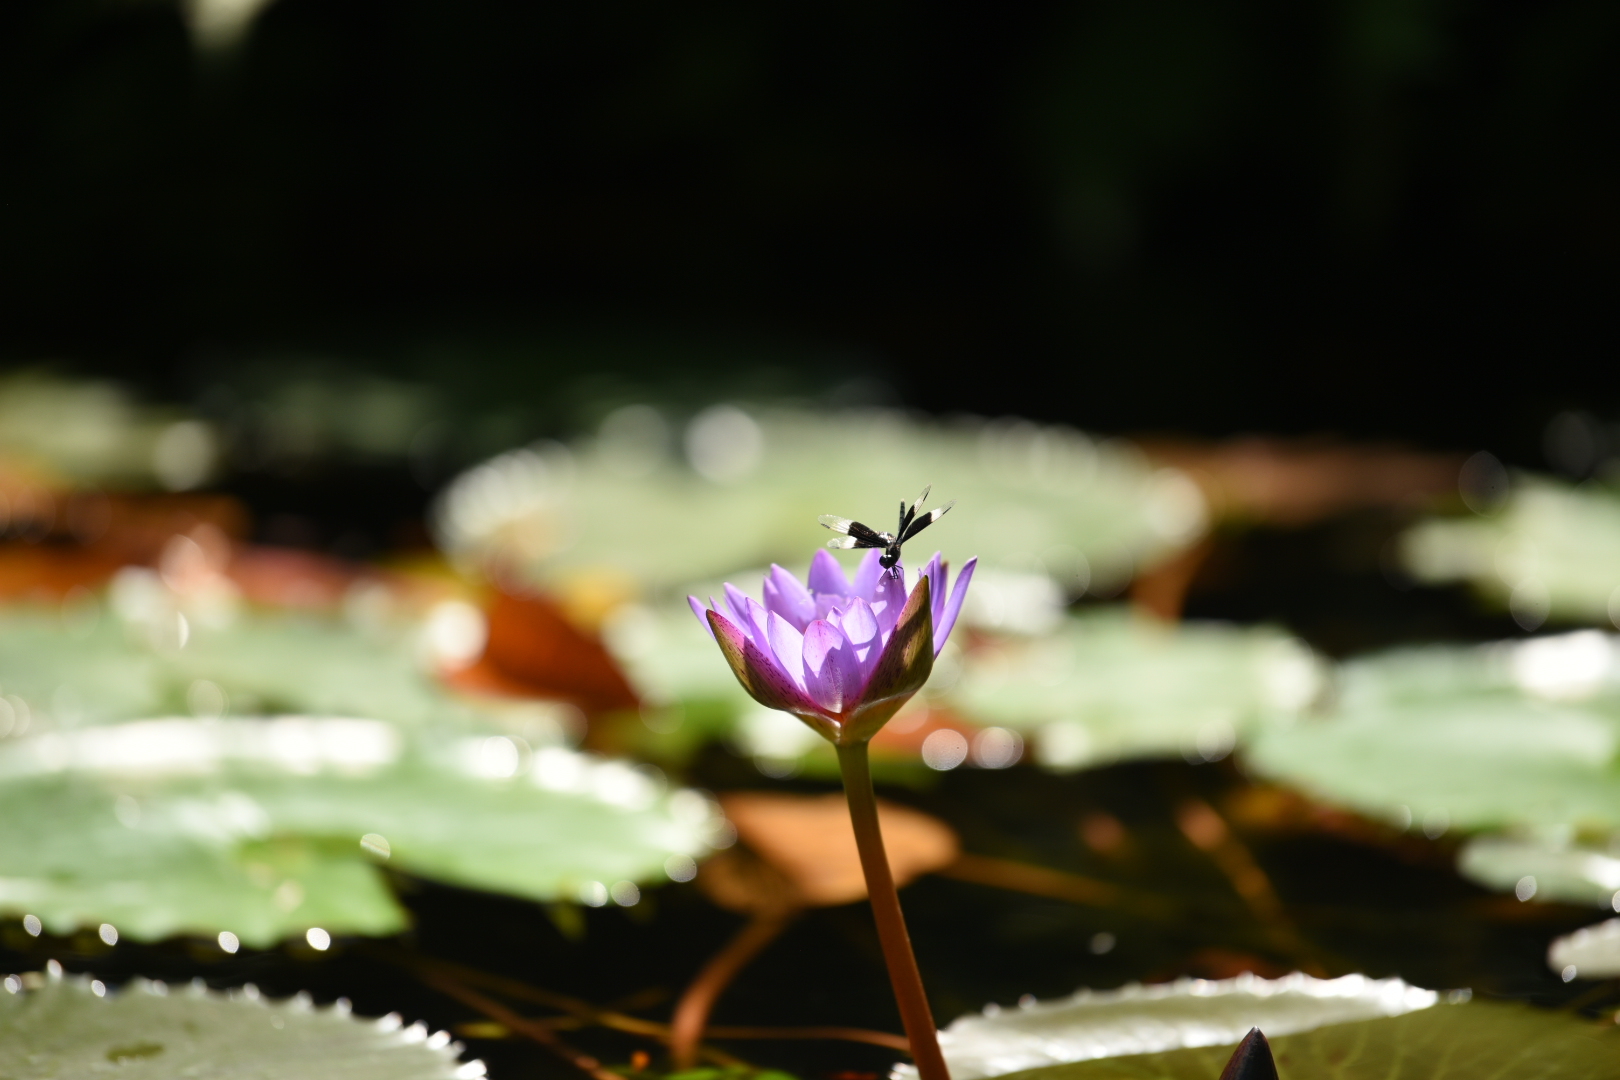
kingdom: Animalia
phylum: Arthropoda
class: Insecta
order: Odonata
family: Libellulidae
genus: Neurothemis
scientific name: Neurothemis tullia
